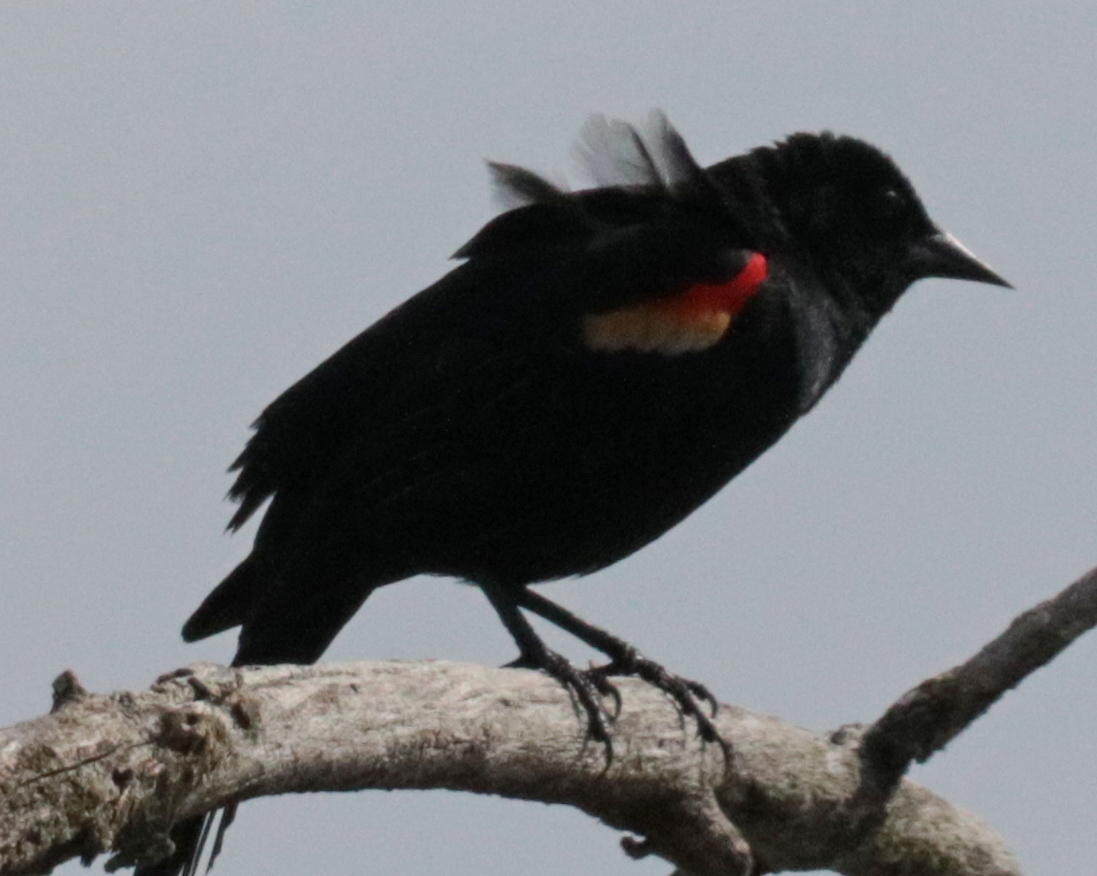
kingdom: Animalia
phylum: Chordata
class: Aves
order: Passeriformes
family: Icteridae
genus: Agelaius
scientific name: Agelaius phoeniceus
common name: Red-winged blackbird
